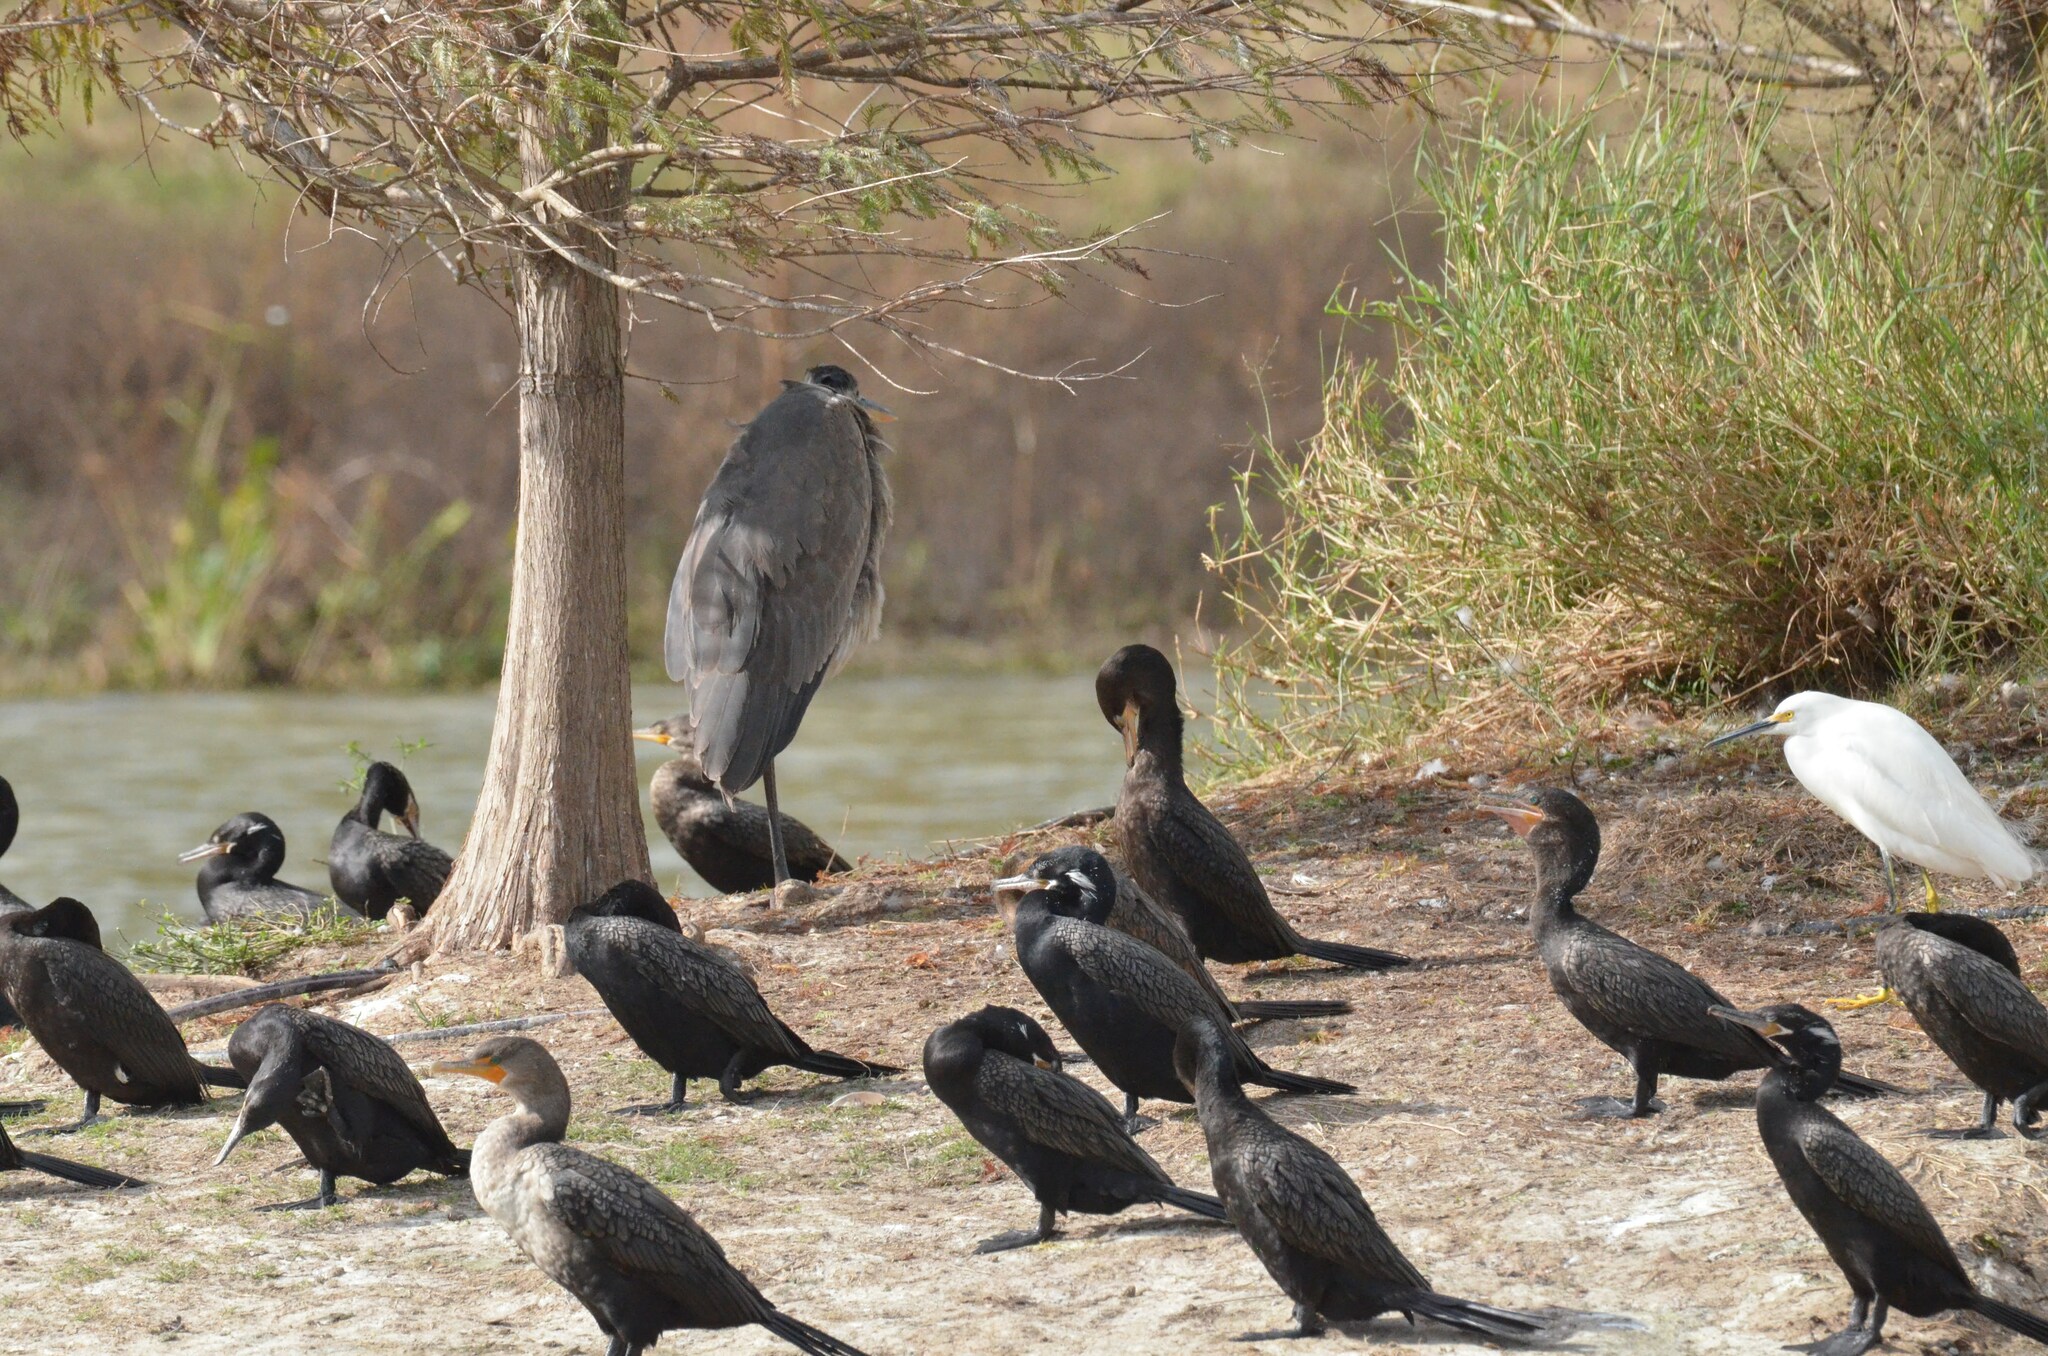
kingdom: Animalia
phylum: Chordata
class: Aves
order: Pelecaniformes
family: Ardeidae
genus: Ardea
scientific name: Ardea herodias
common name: Great blue heron
